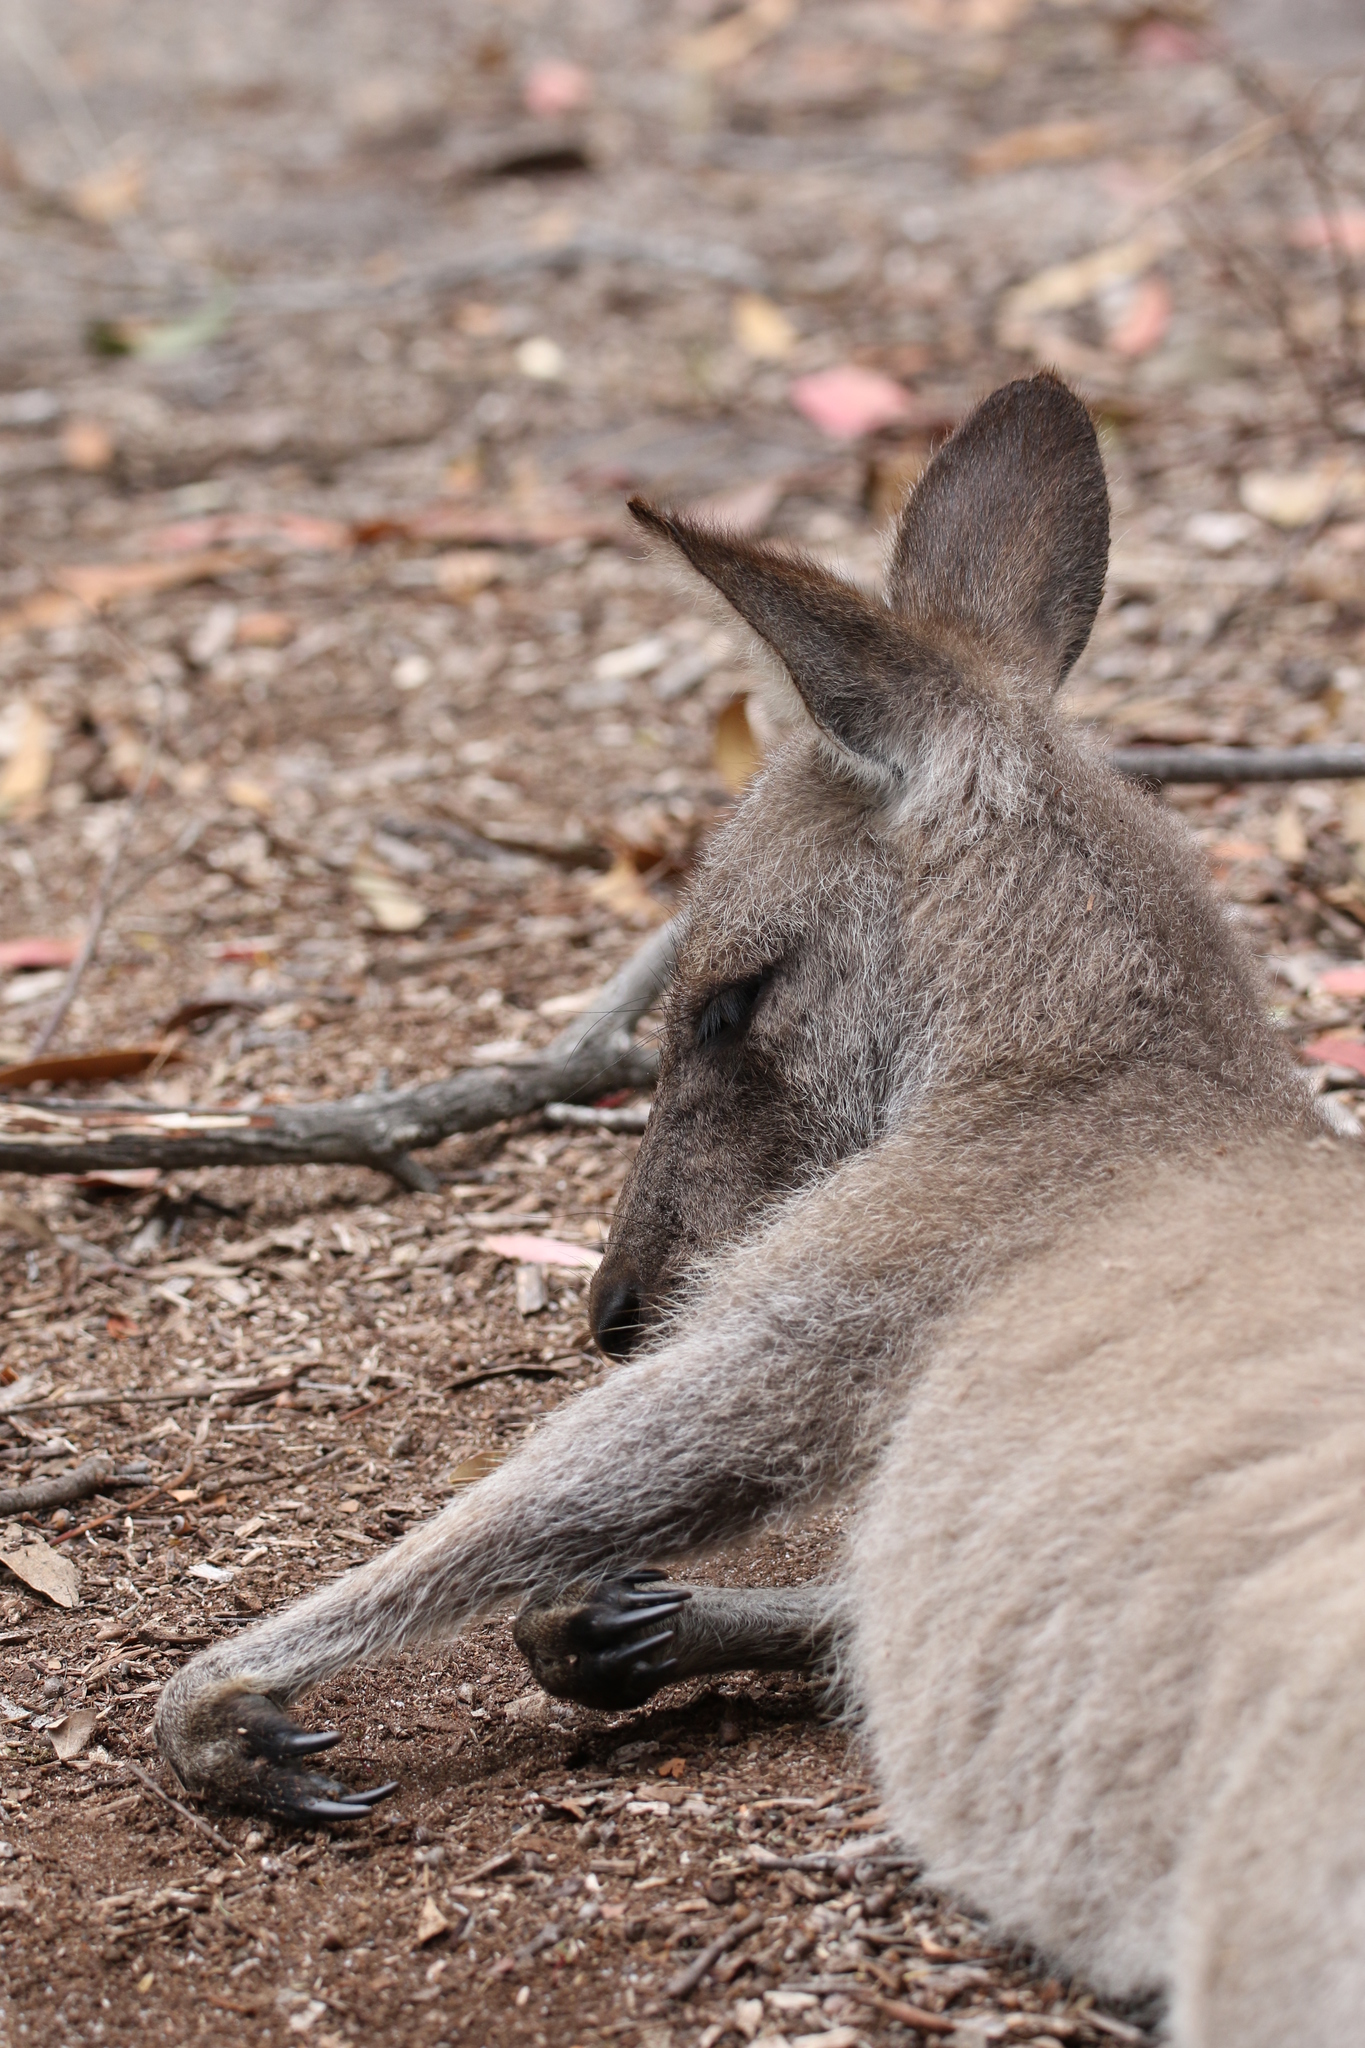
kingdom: Animalia
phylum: Chordata
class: Mammalia
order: Diprotodontia
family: Macropodidae
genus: Macropus
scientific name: Macropus giganteus
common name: Eastern grey kangaroo
